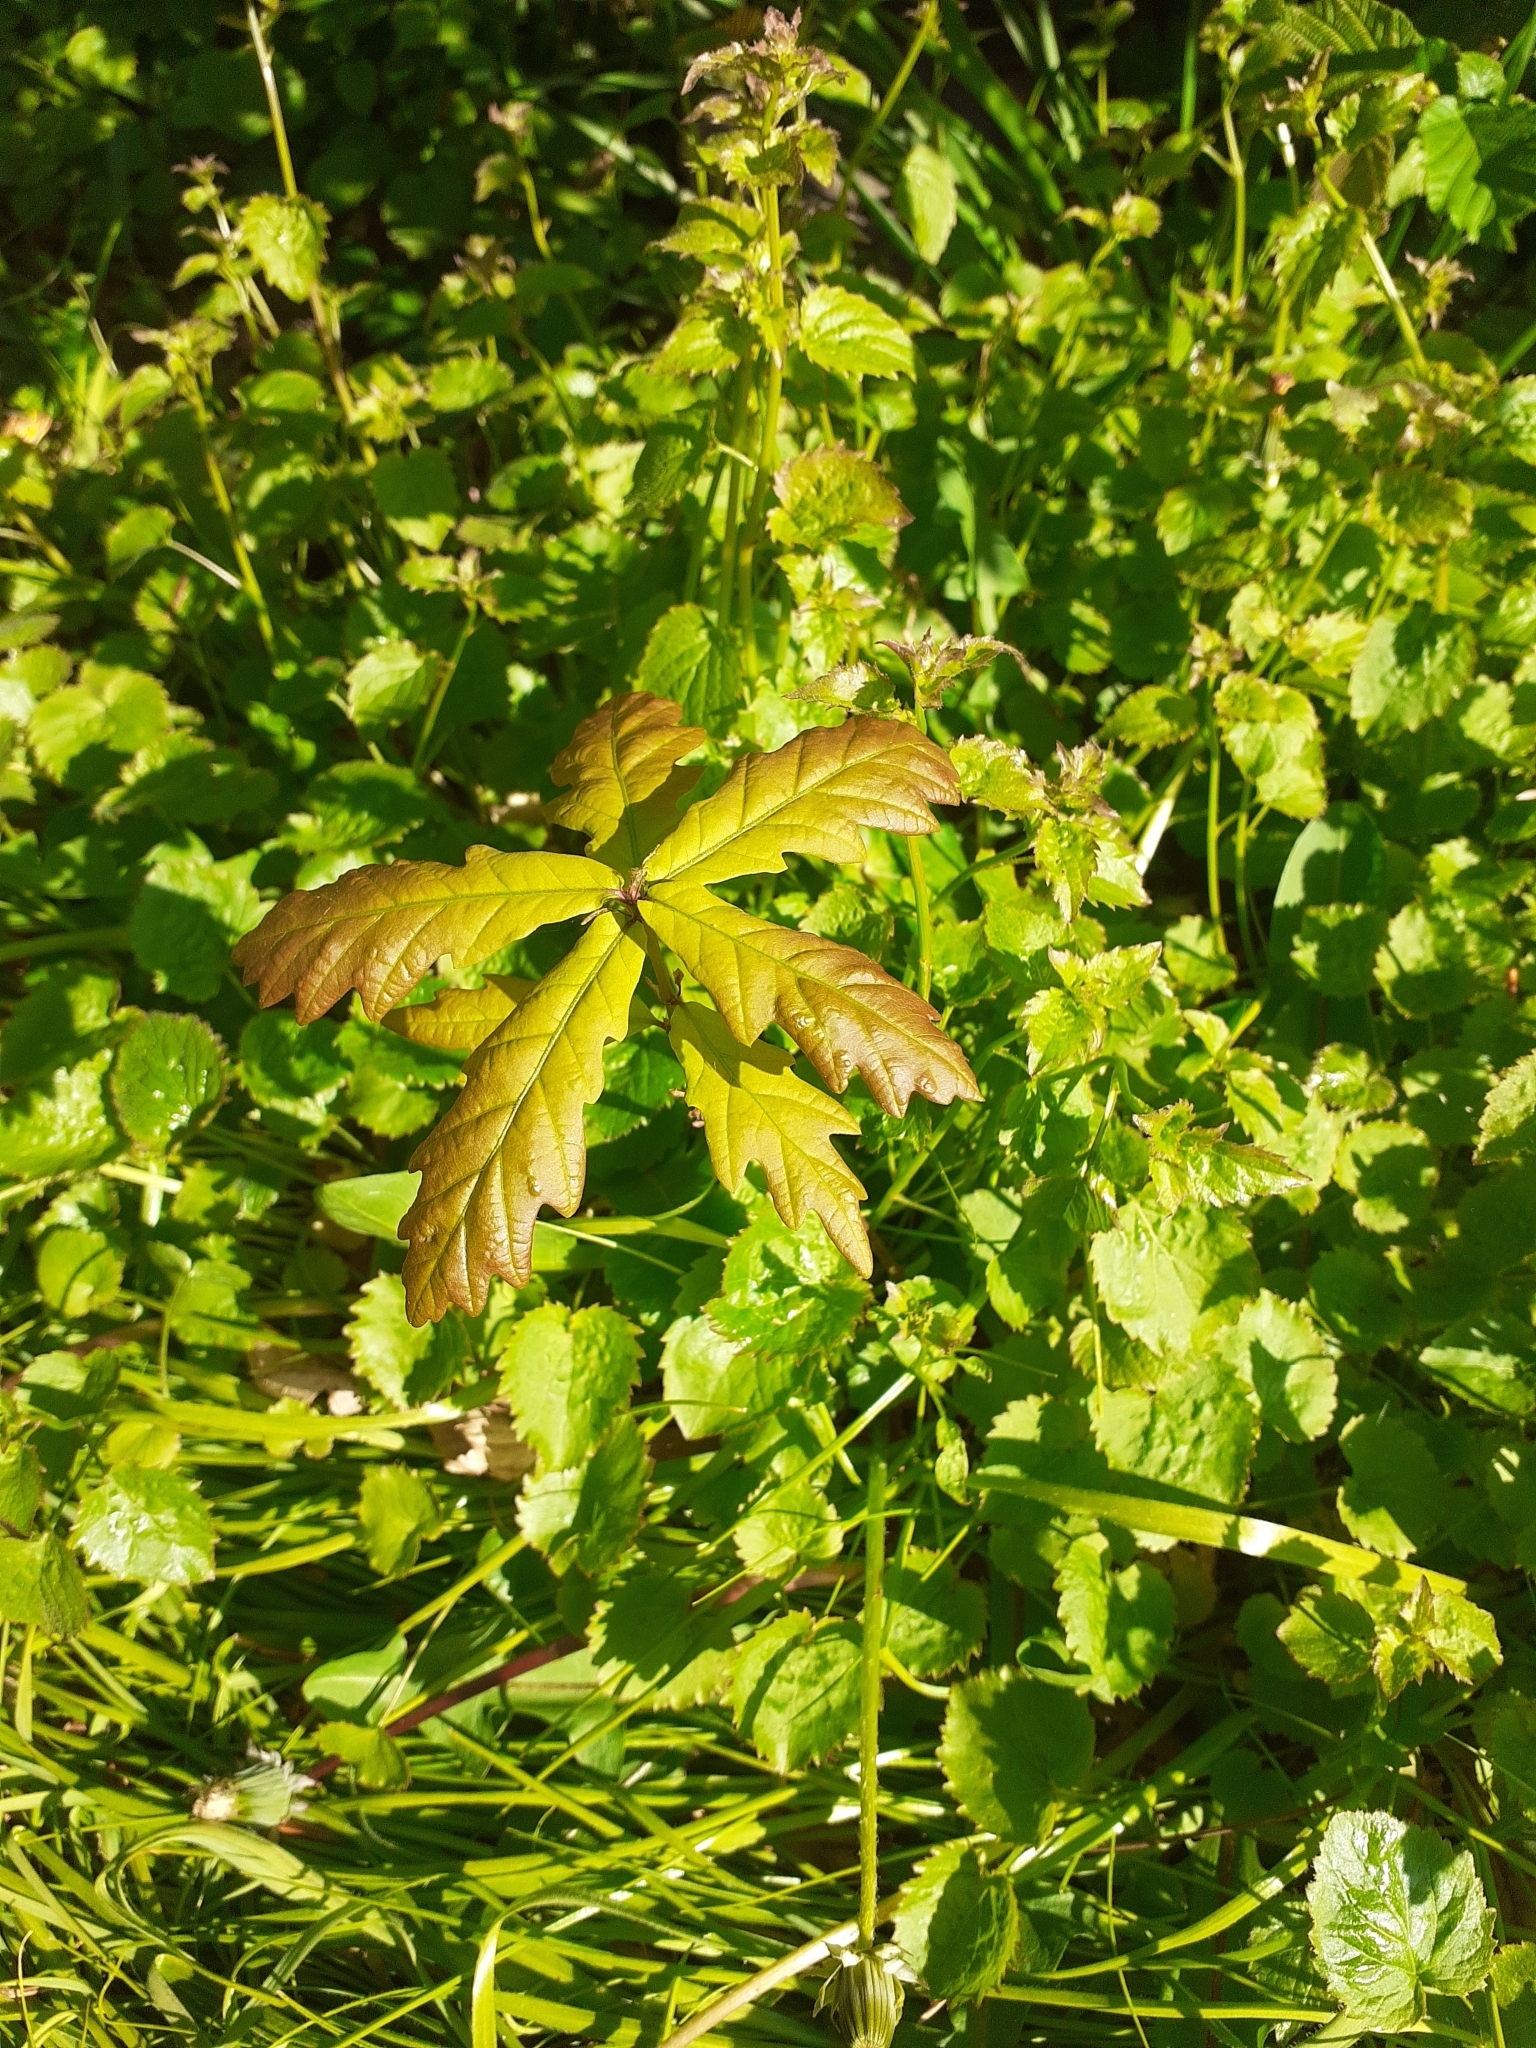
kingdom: Plantae
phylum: Tracheophyta
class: Magnoliopsida
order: Fagales
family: Fagaceae
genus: Quercus
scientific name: Quercus robur
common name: Pedunculate oak
